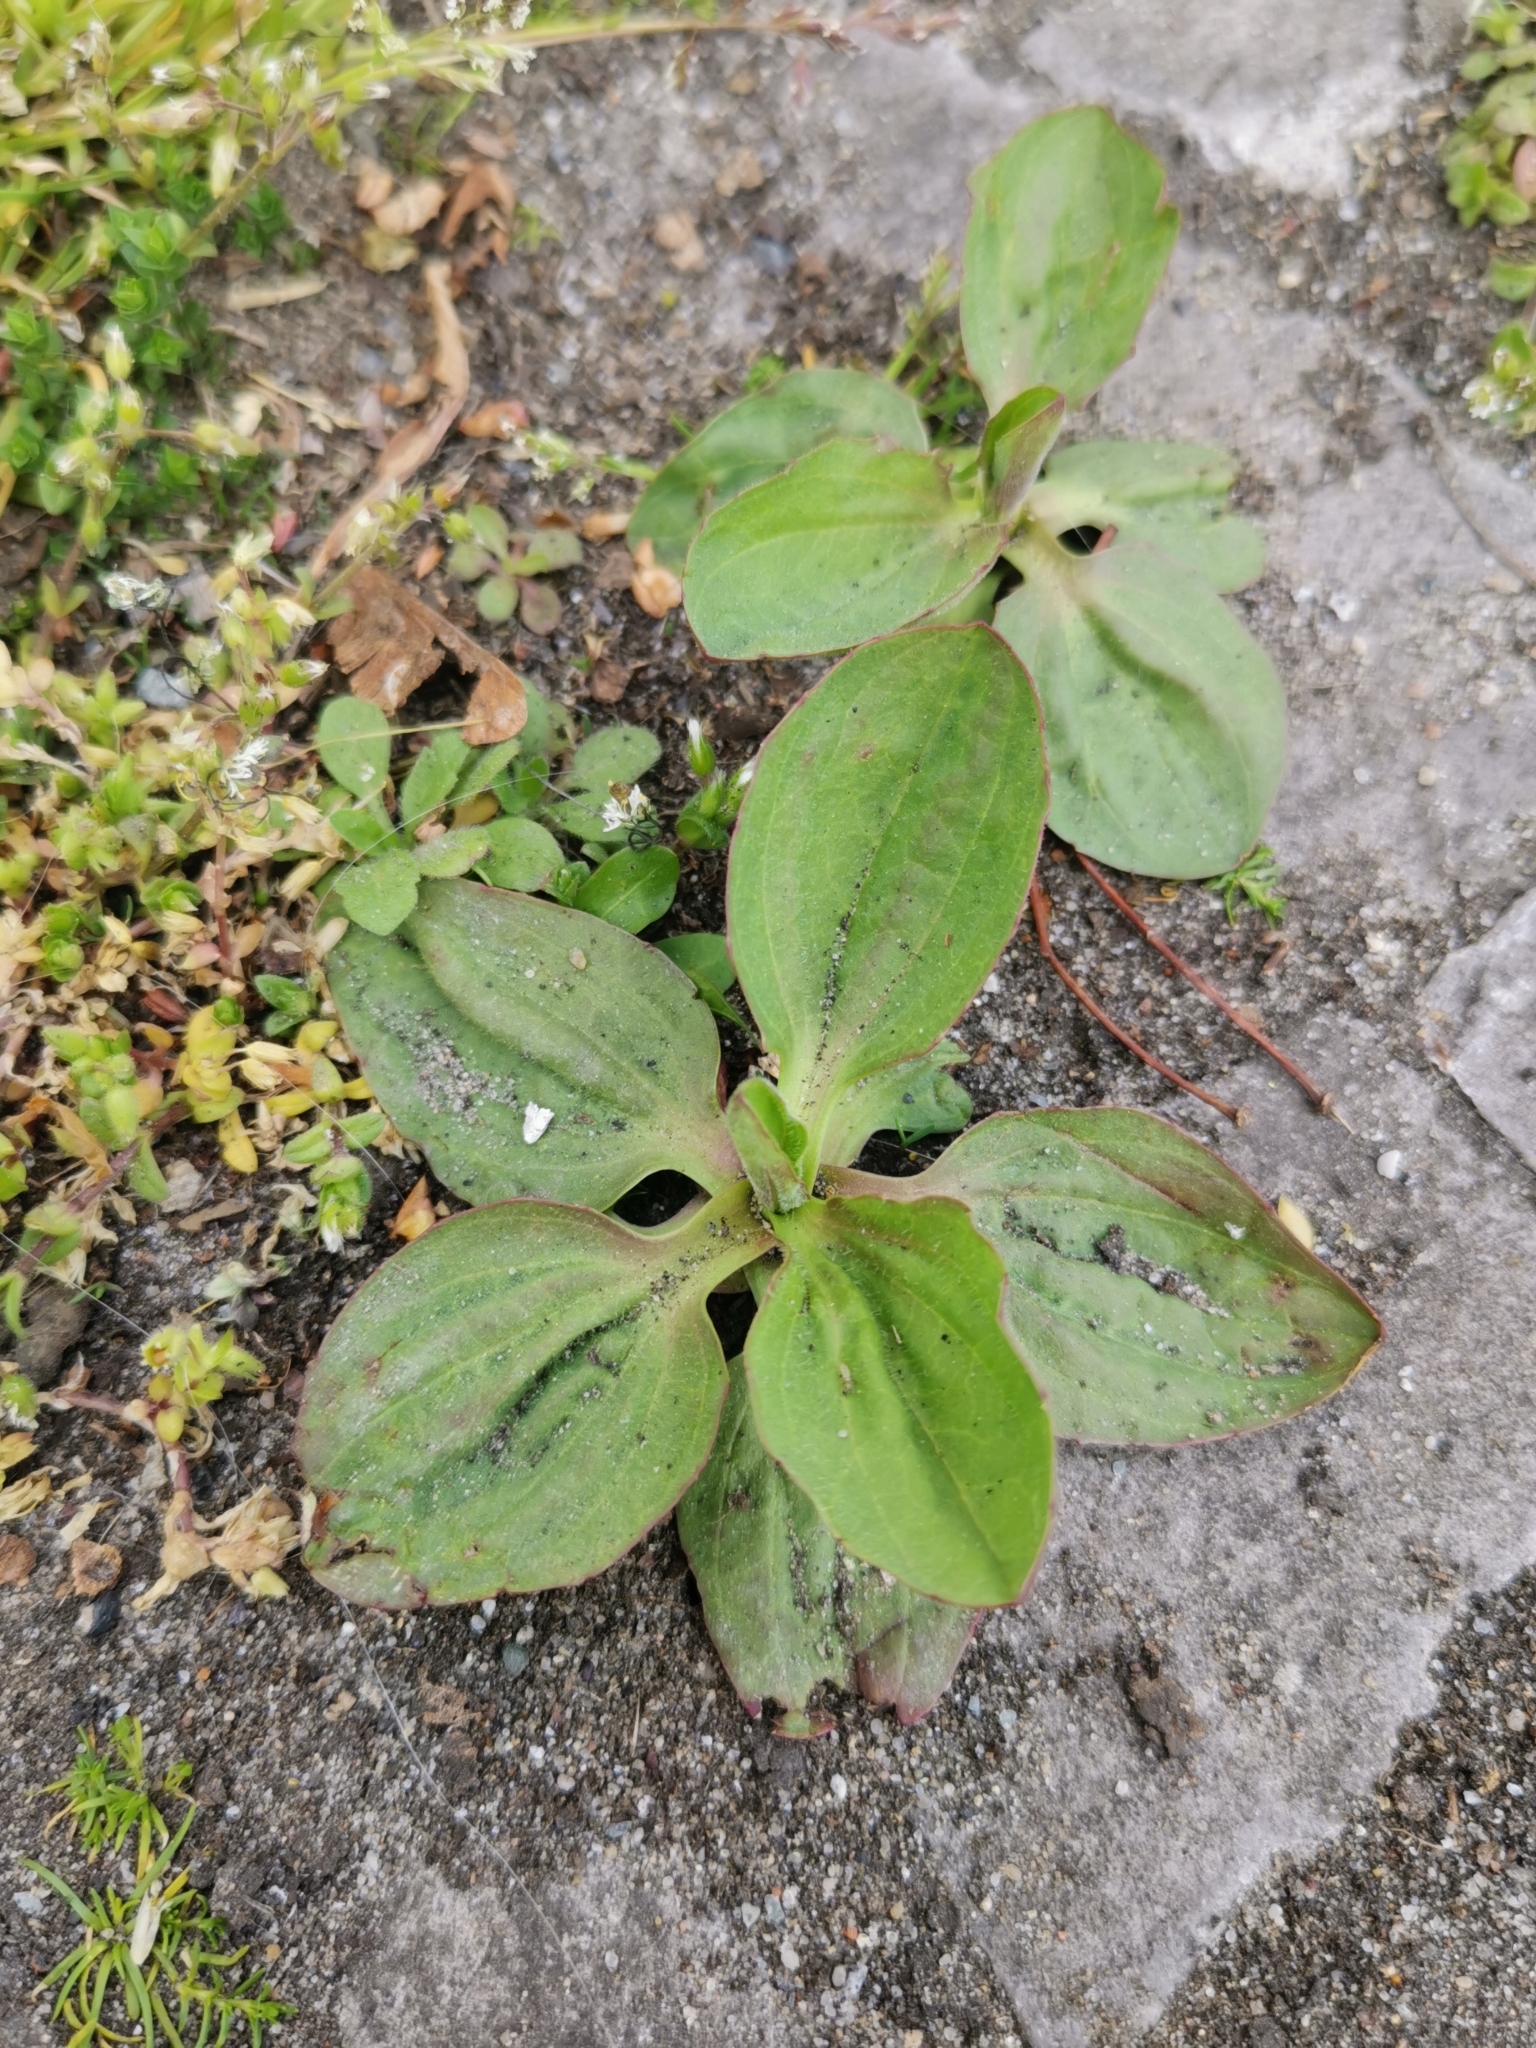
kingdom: Plantae
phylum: Tracheophyta
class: Magnoliopsida
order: Lamiales
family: Plantaginaceae
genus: Plantago
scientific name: Plantago major
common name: Common plantain
